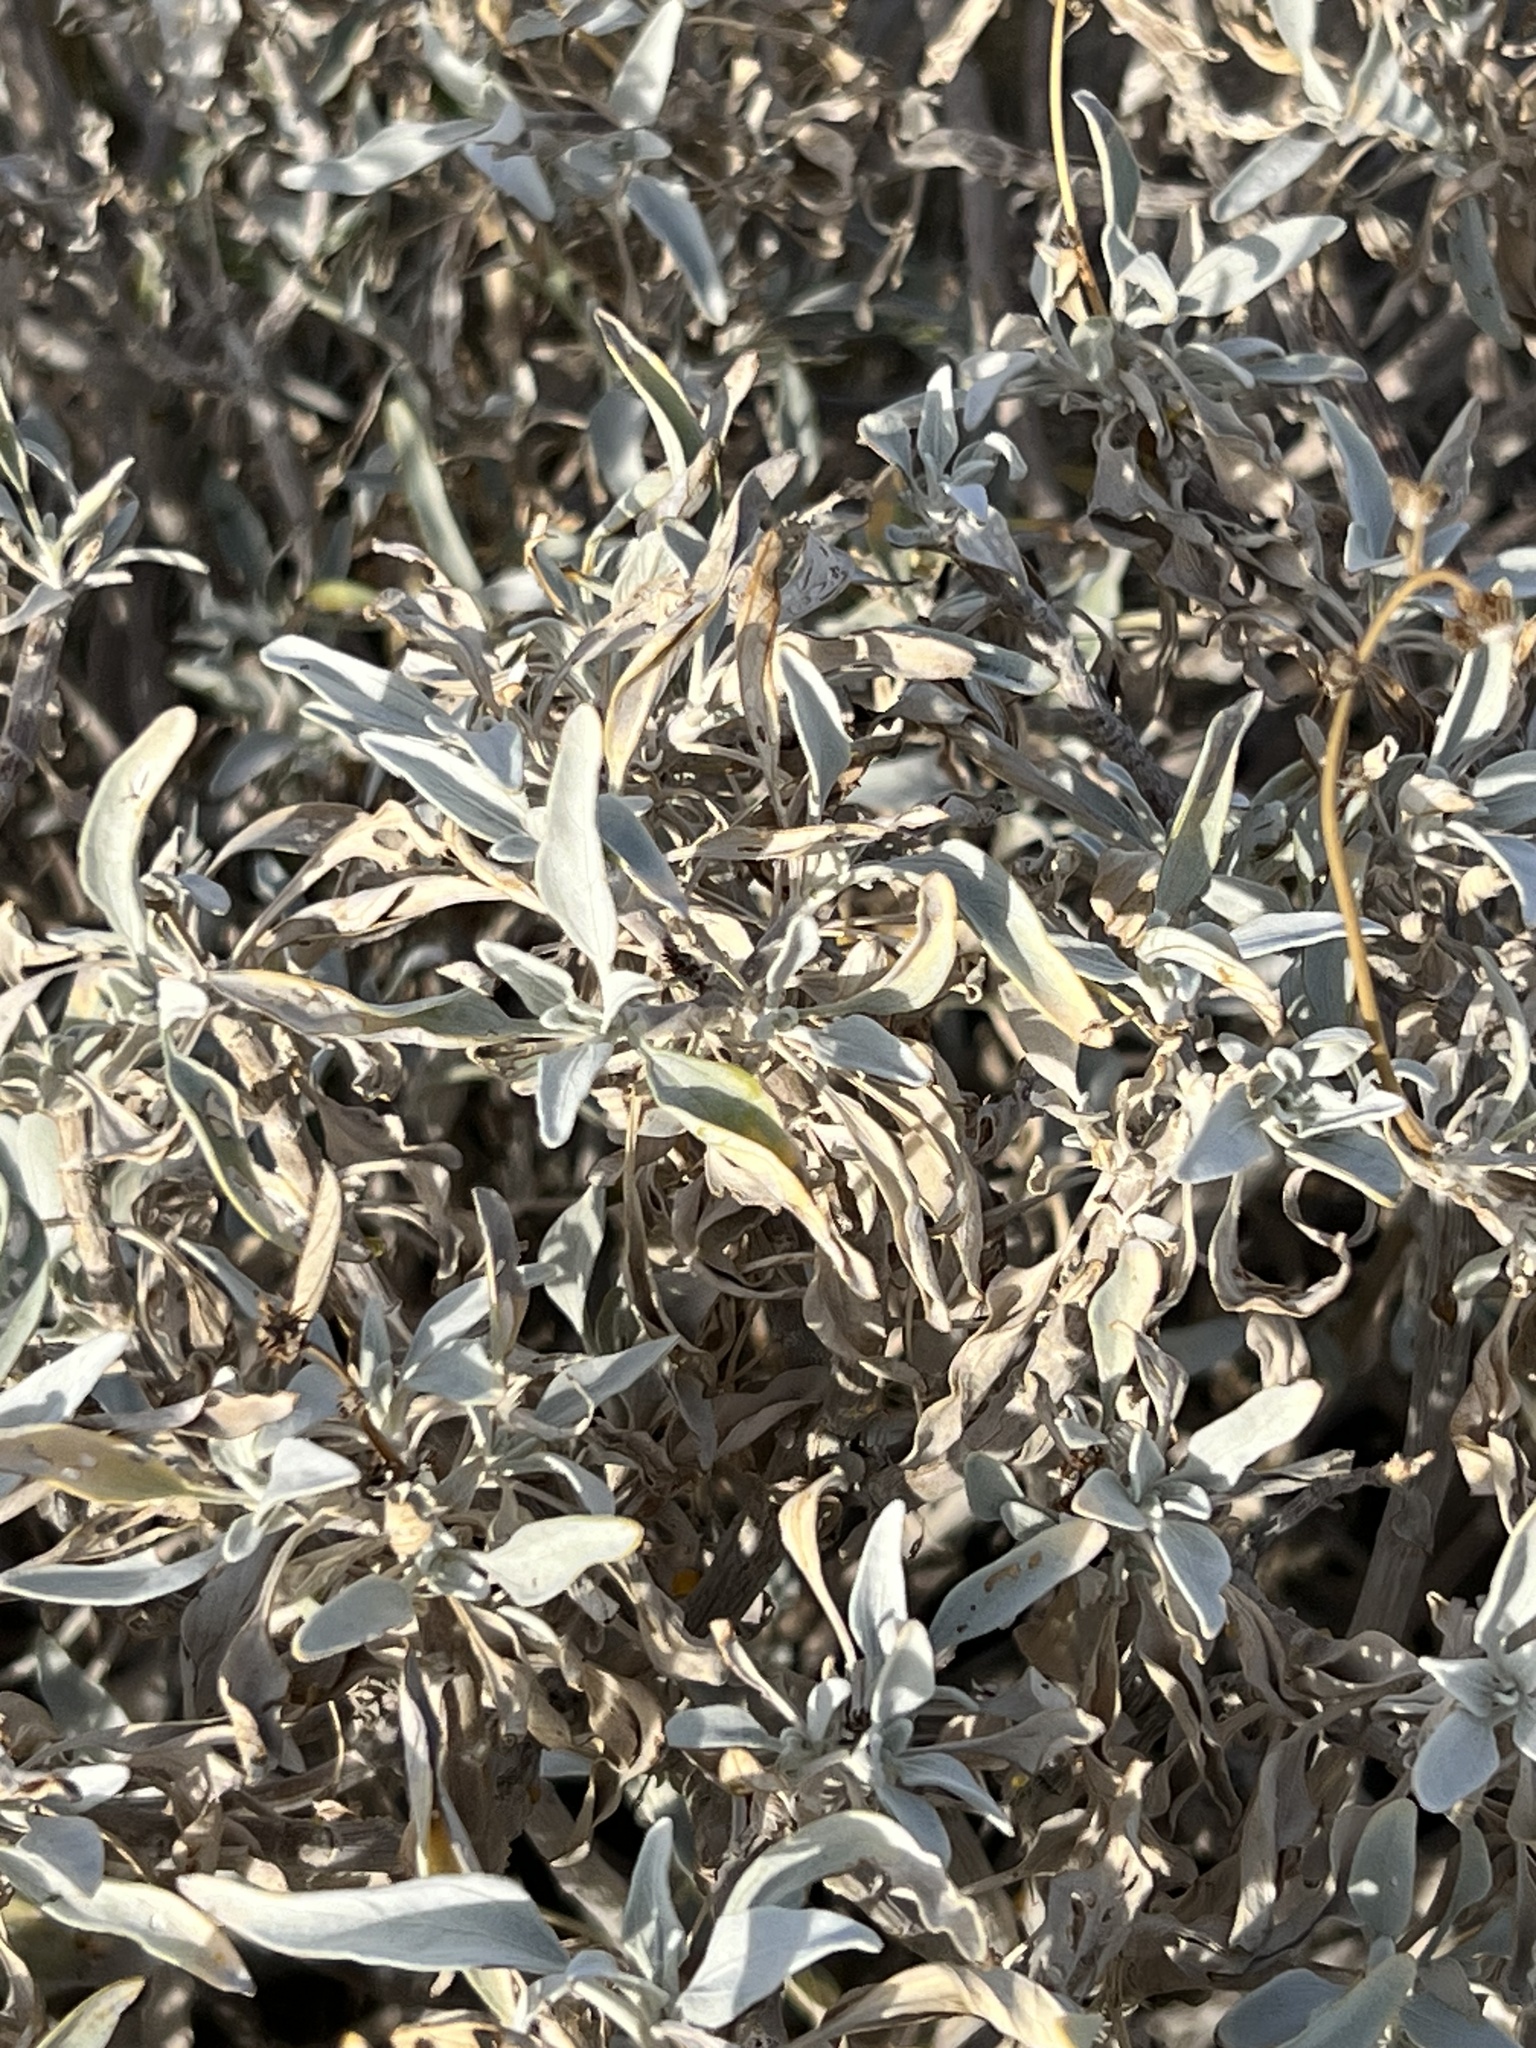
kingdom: Plantae
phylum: Tracheophyta
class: Magnoliopsida
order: Asterales
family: Asteraceae
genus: Encelia
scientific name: Encelia farinosa
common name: Brittlebush
